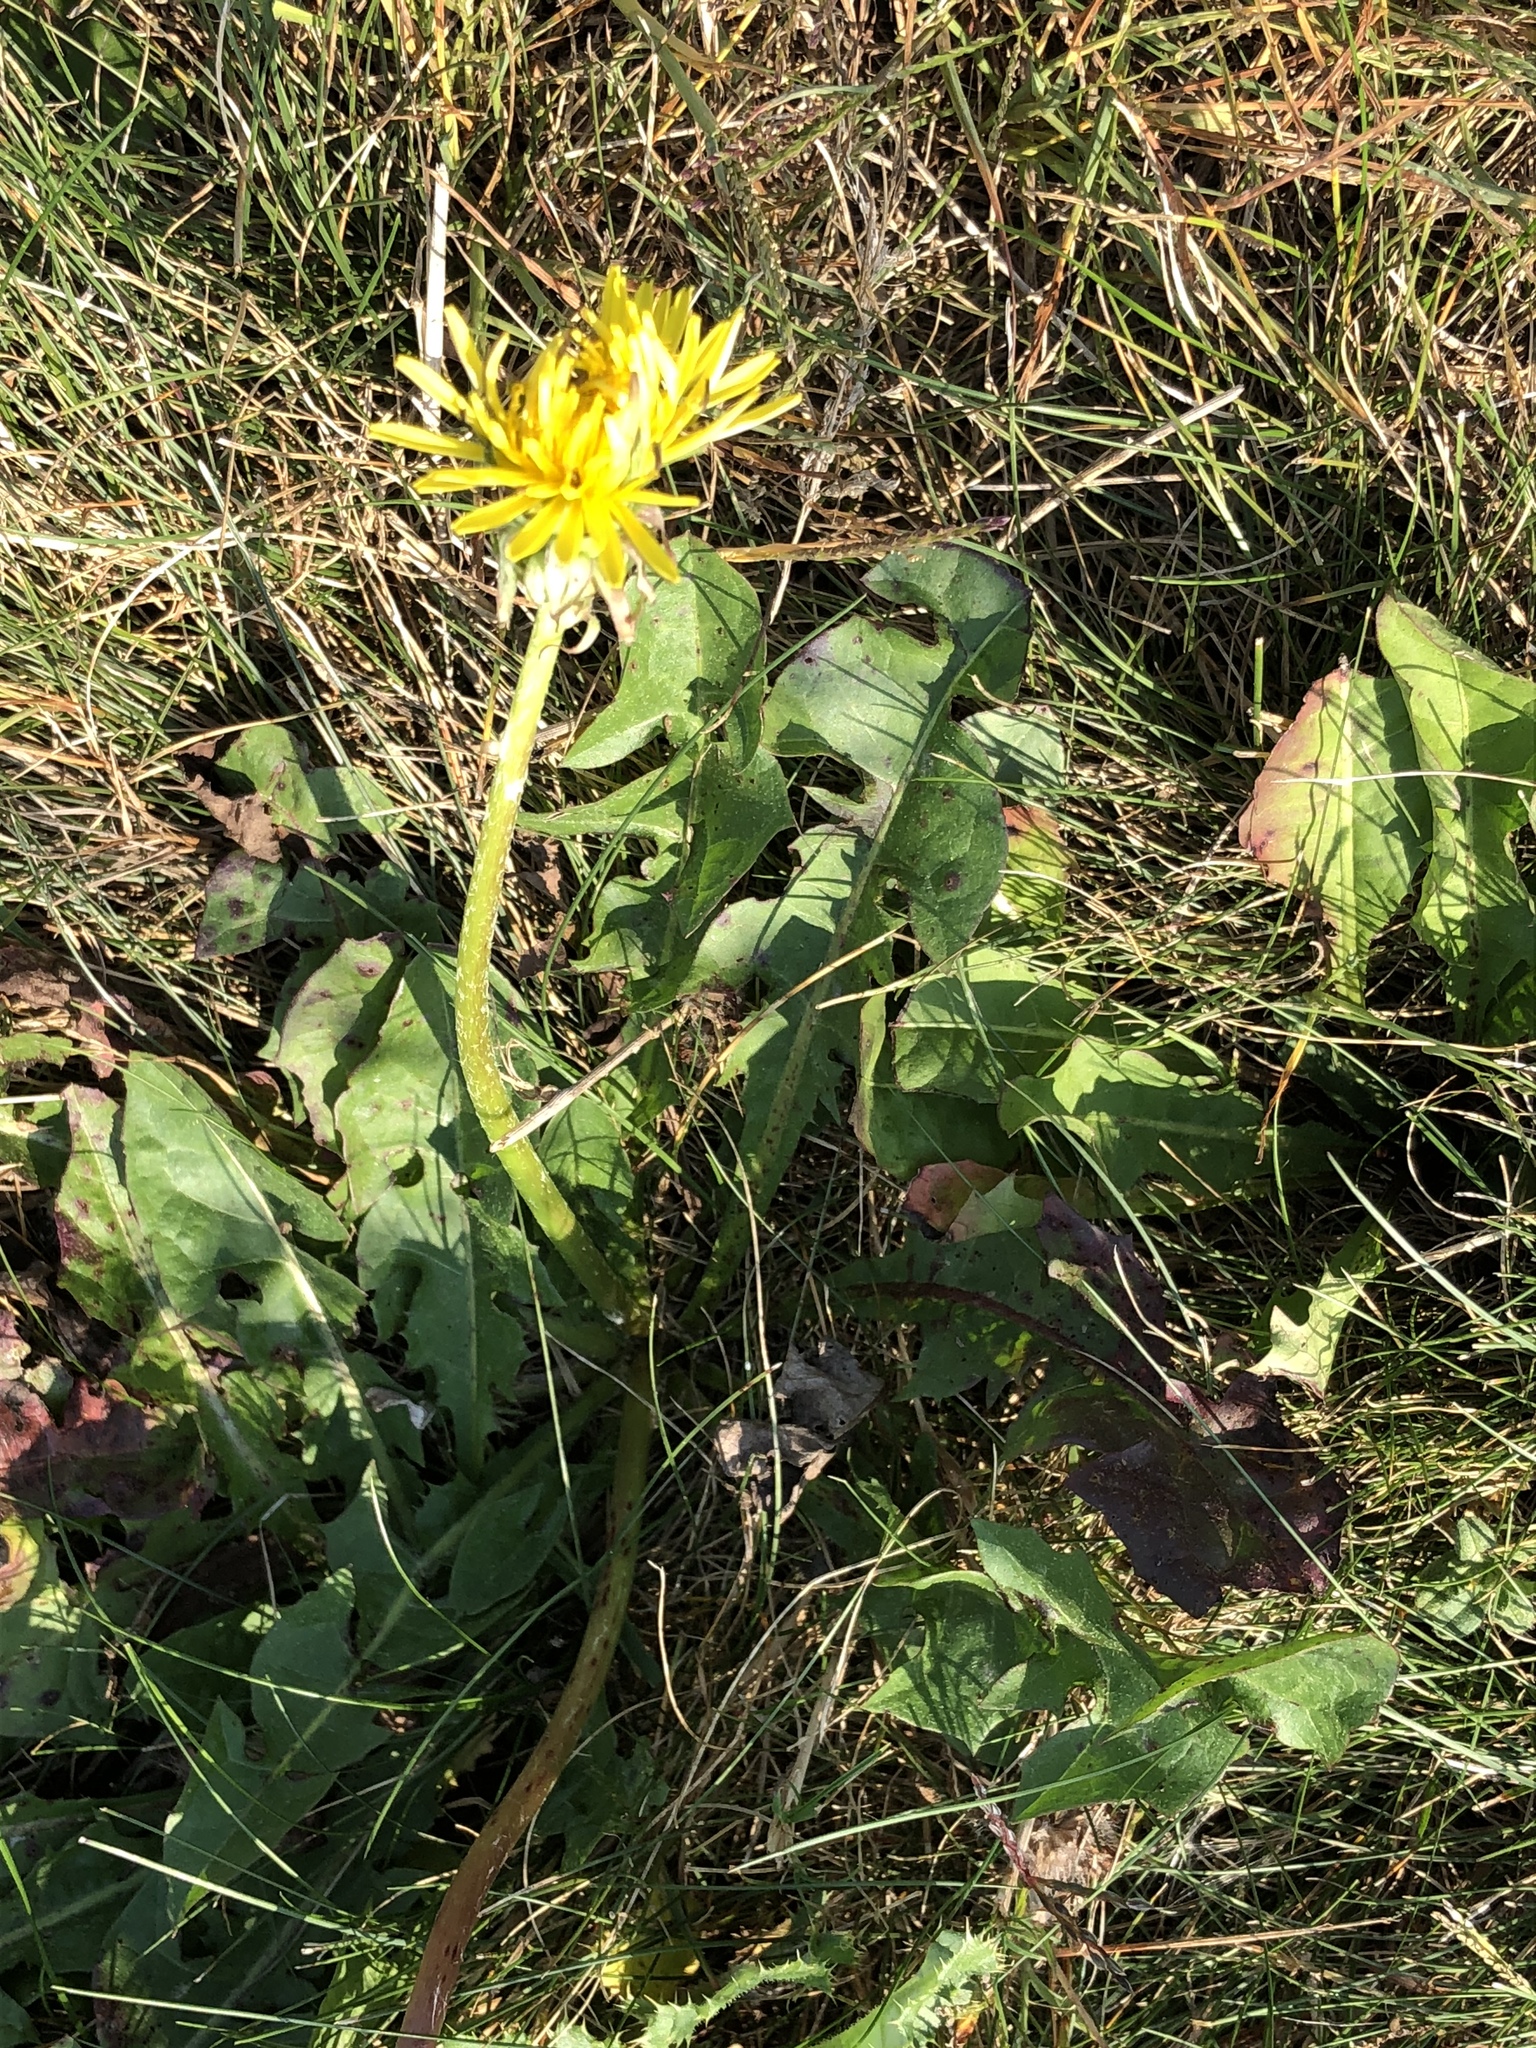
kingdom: Plantae
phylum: Tracheophyta
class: Magnoliopsida
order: Asterales
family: Asteraceae
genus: Taraxacum
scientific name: Taraxacum officinale
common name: Common dandelion
